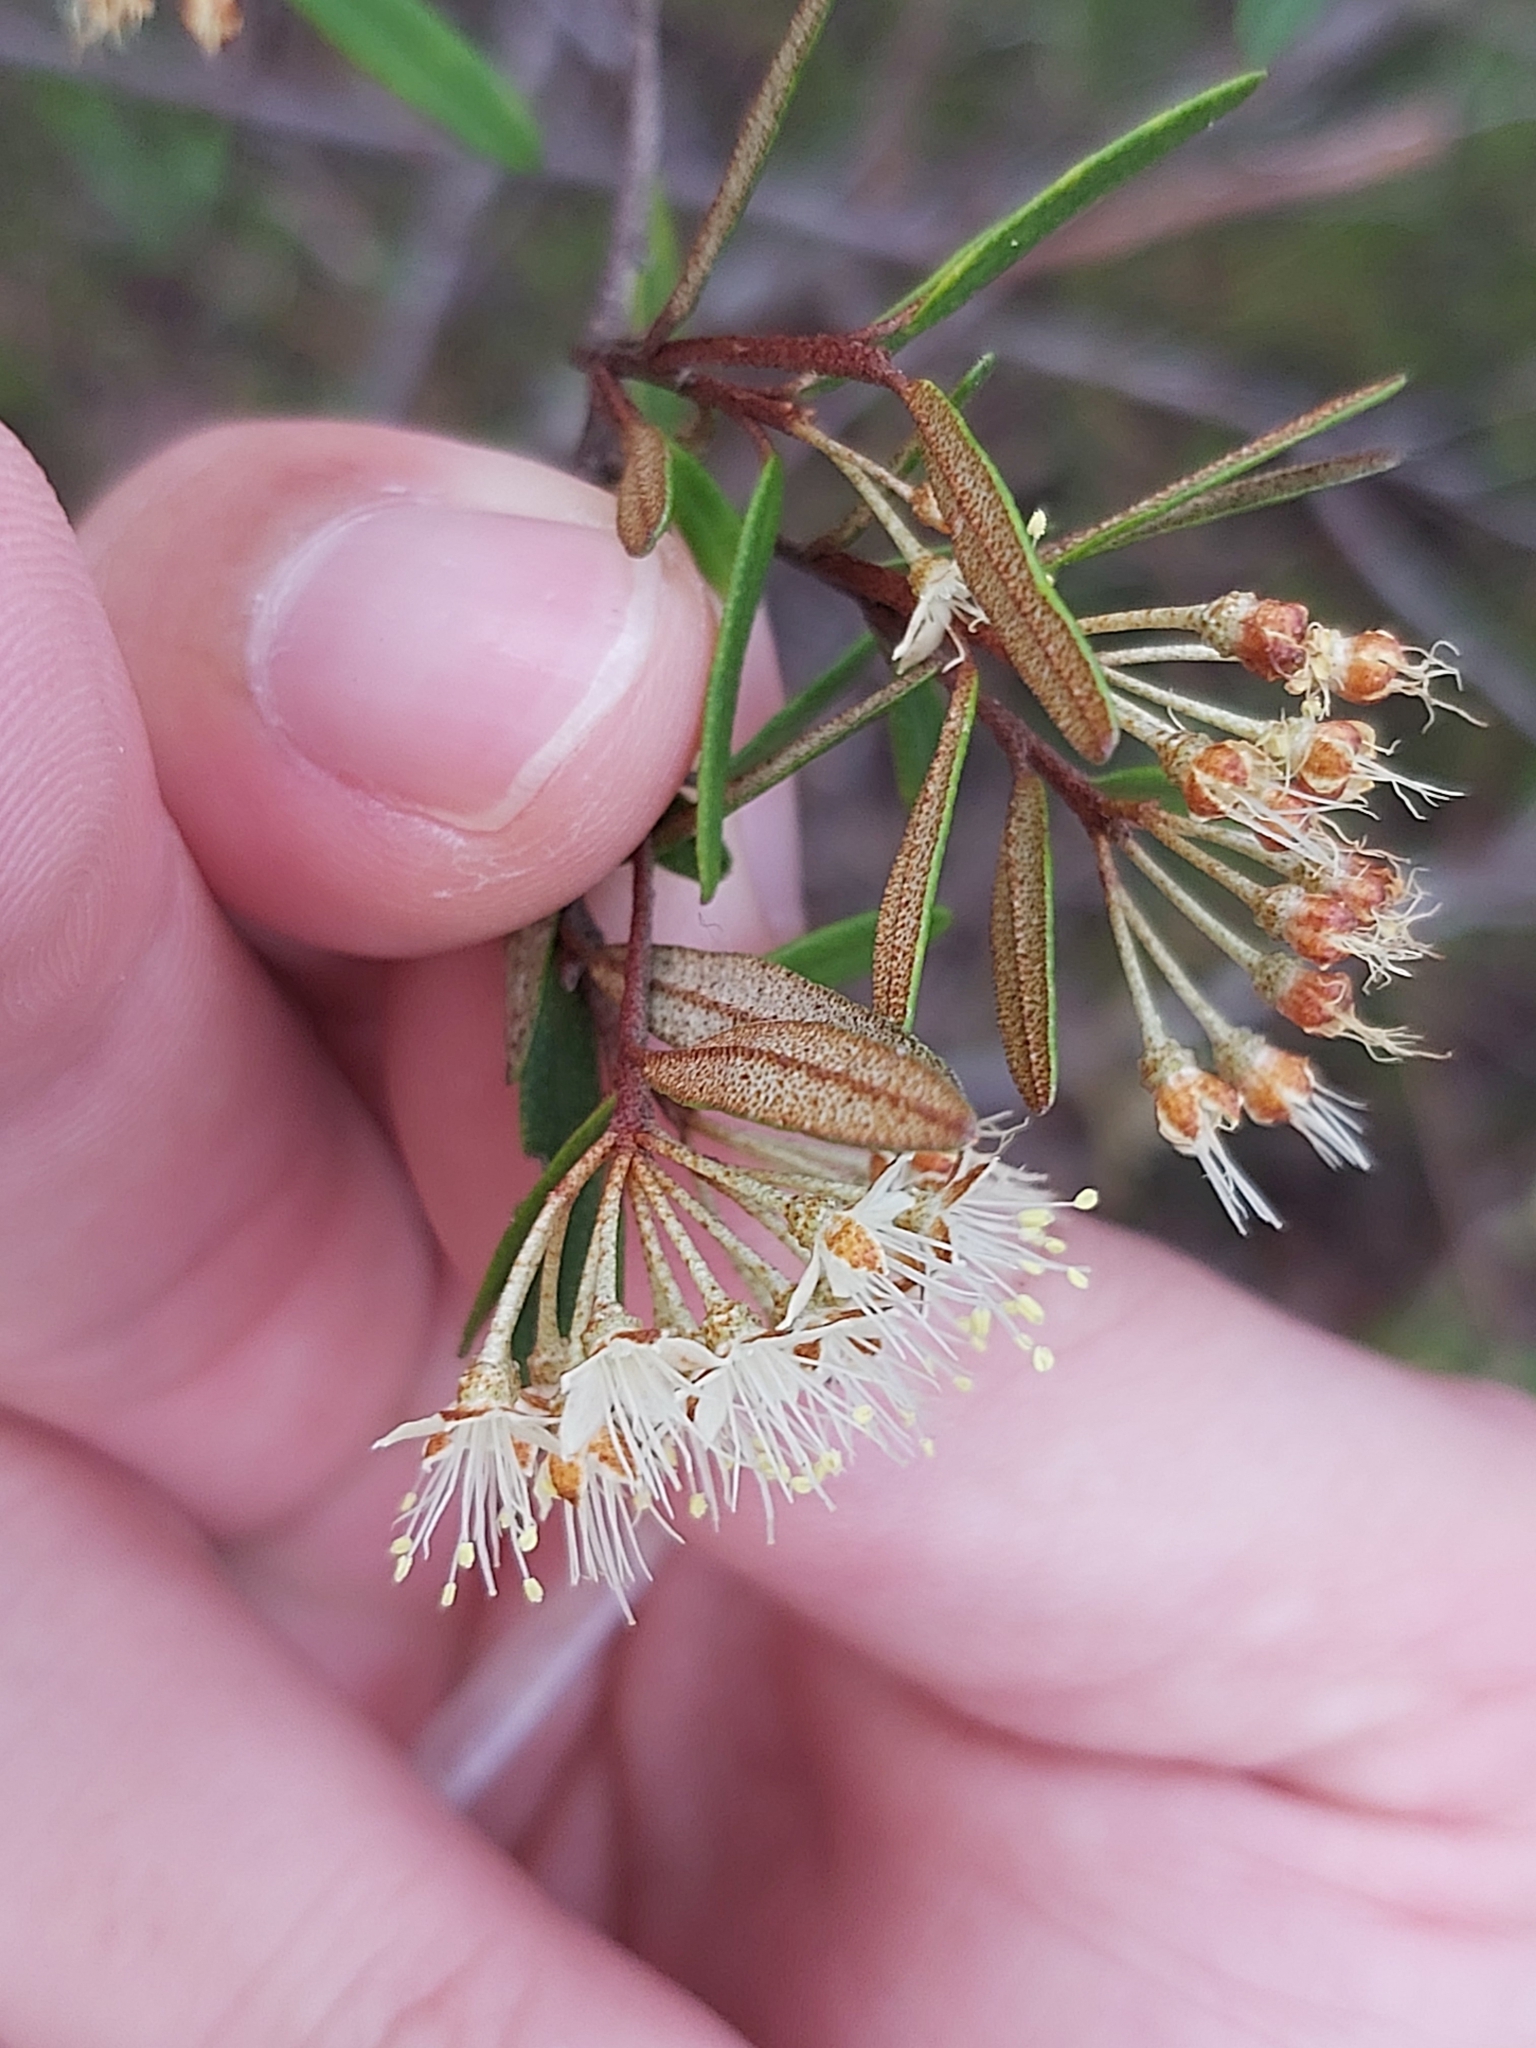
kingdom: Plantae
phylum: Tracheophyta
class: Magnoliopsida
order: Sapindales
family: Rutaceae
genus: Phebalium
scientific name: Phebalium squamulosum
